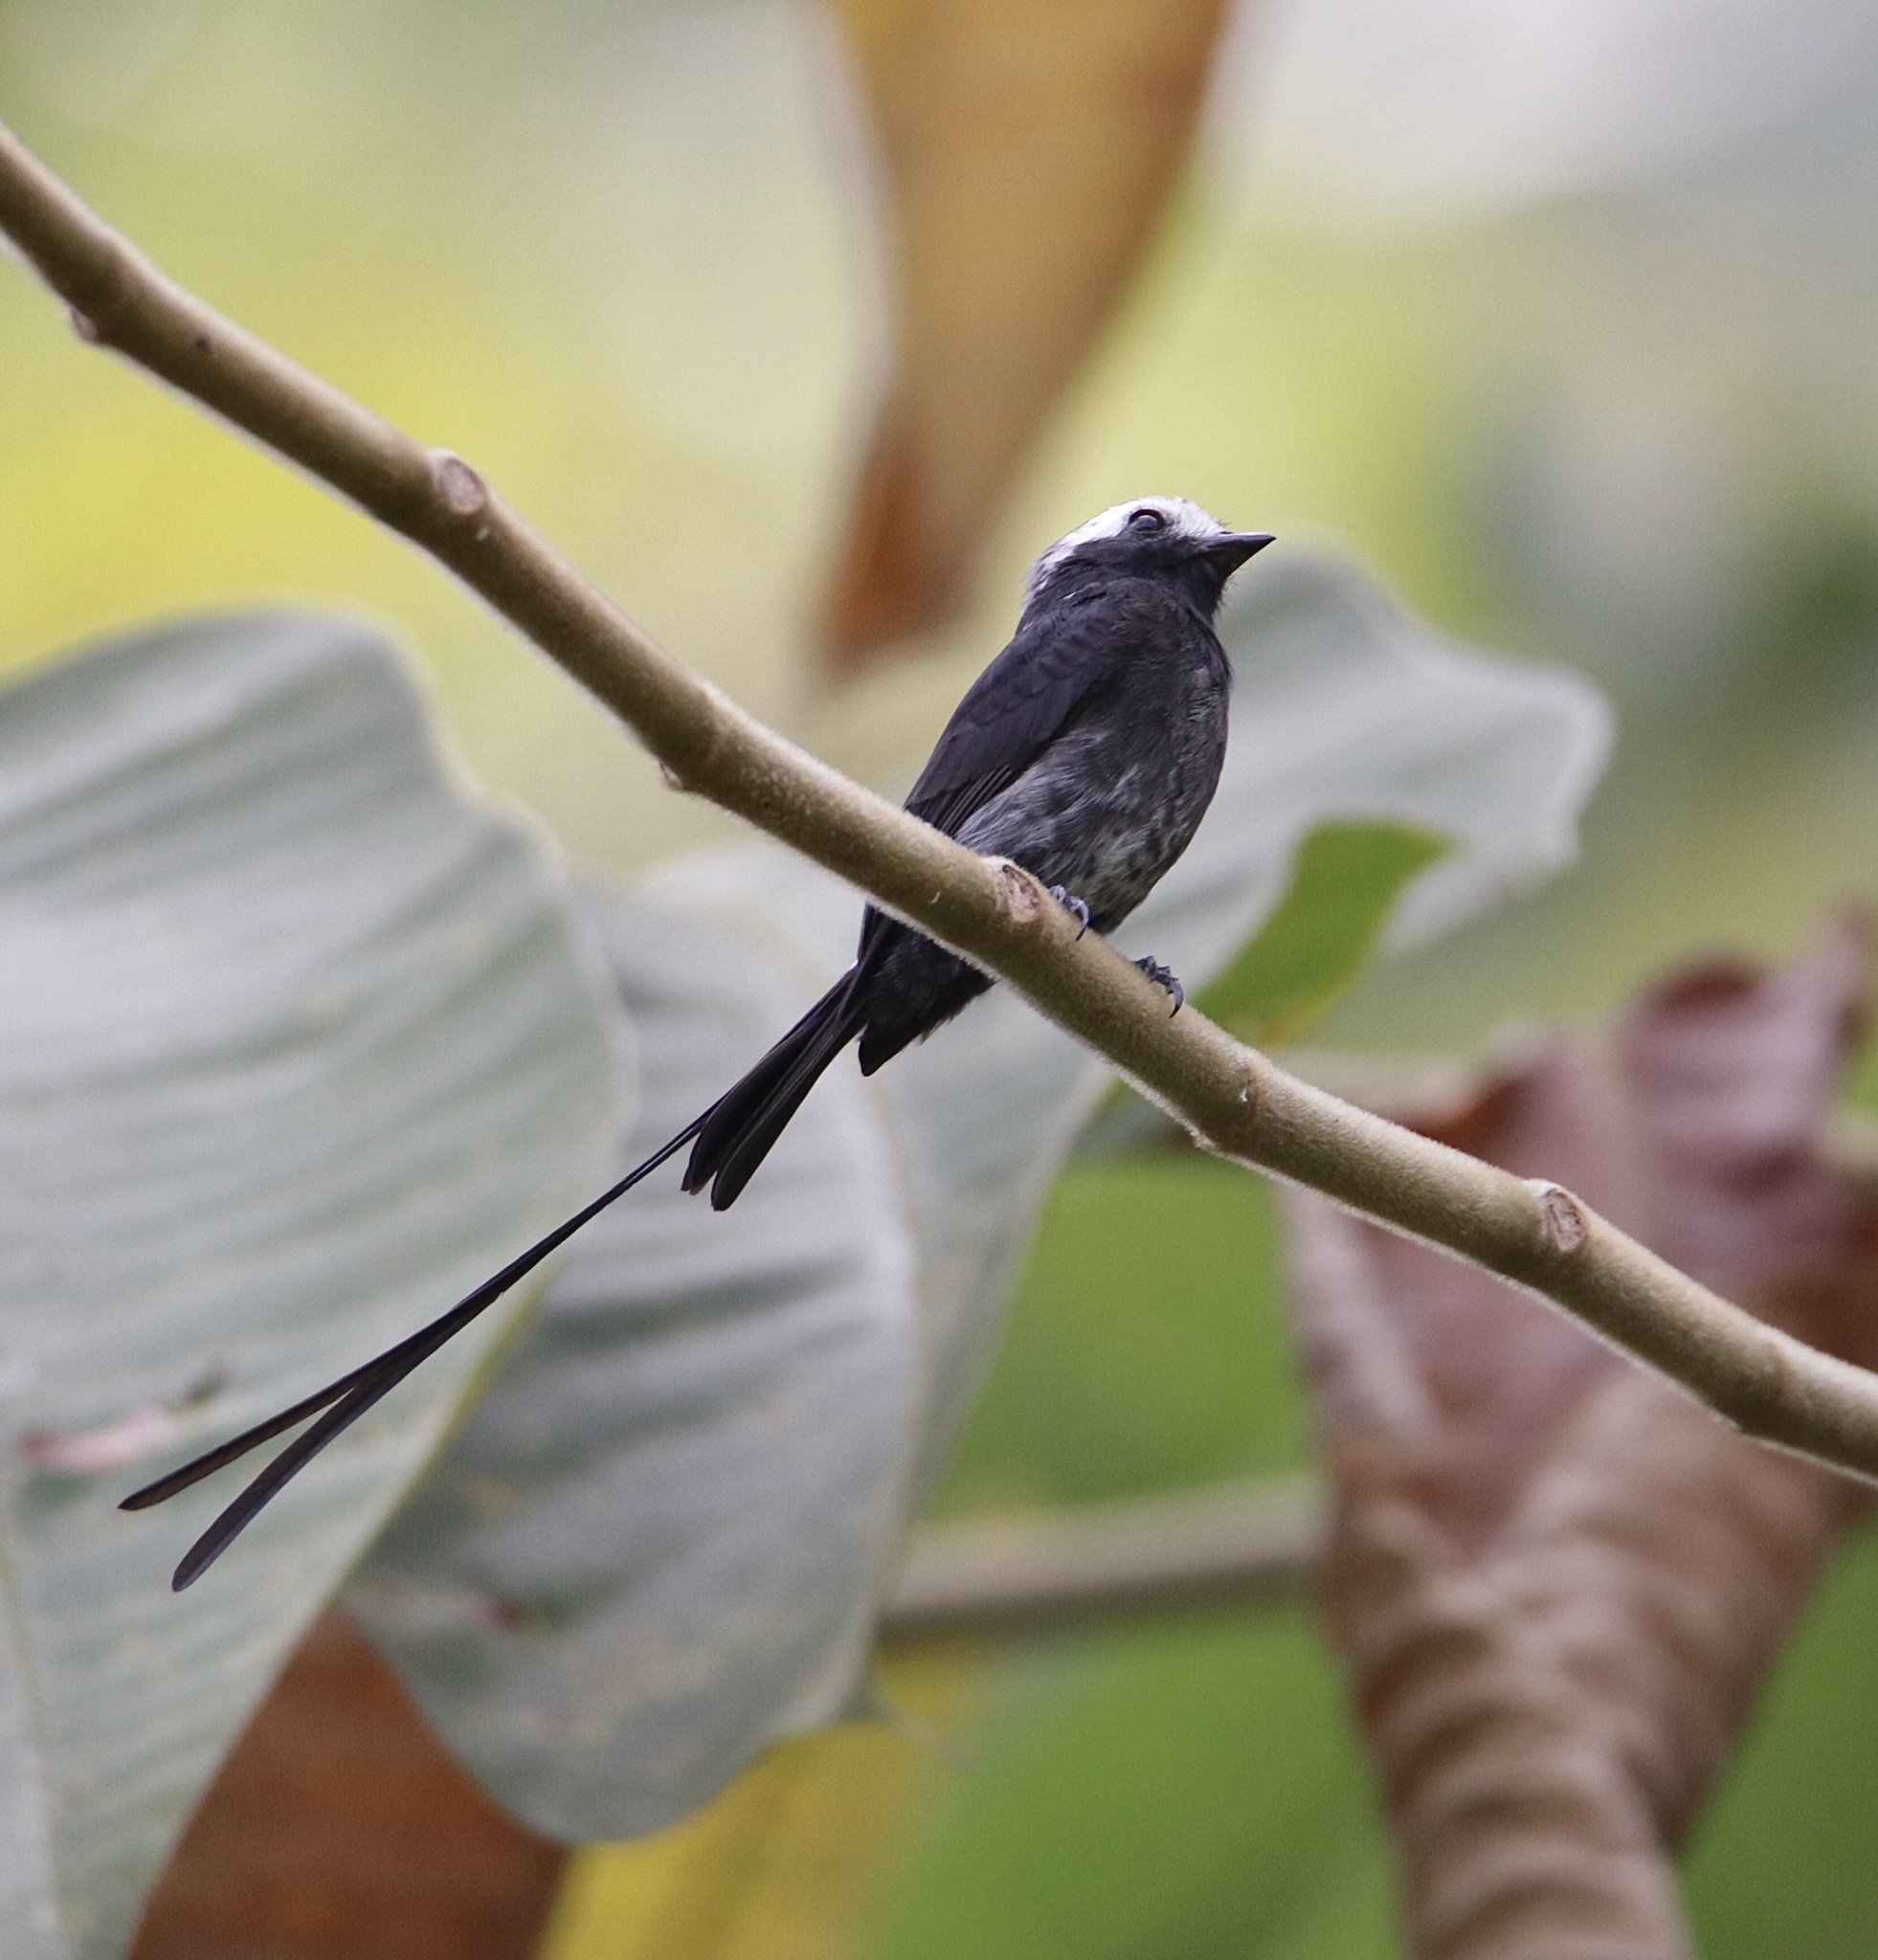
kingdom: Animalia
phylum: Chordata
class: Aves
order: Passeriformes
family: Tyrannidae
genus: Colonia
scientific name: Colonia colonus
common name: Long-tailed tyrant
